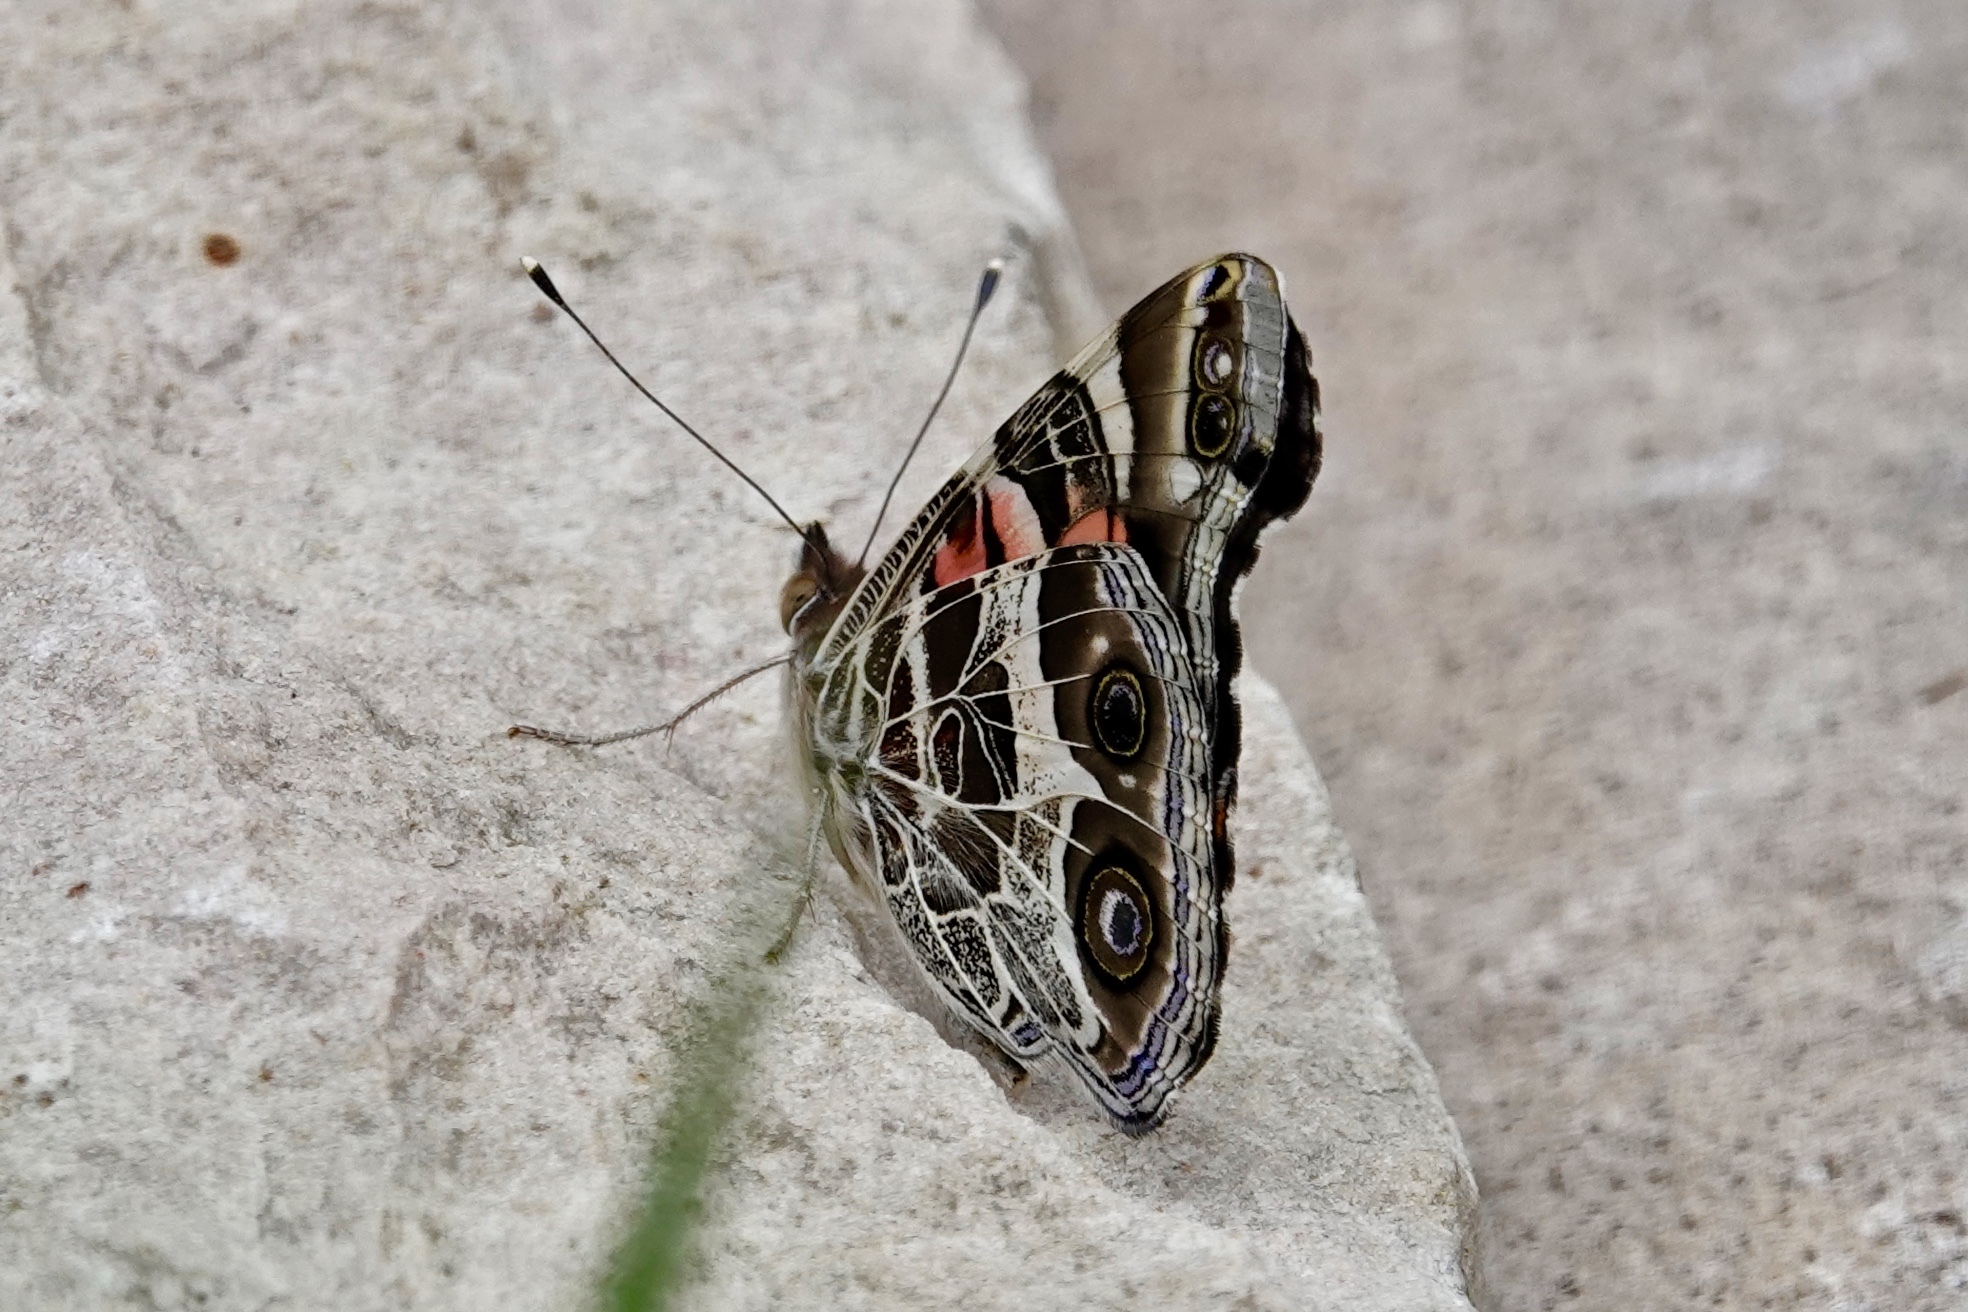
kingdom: Animalia
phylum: Arthropoda
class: Insecta
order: Lepidoptera
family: Nymphalidae
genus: Vanessa
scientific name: Vanessa virginiensis
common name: American lady
